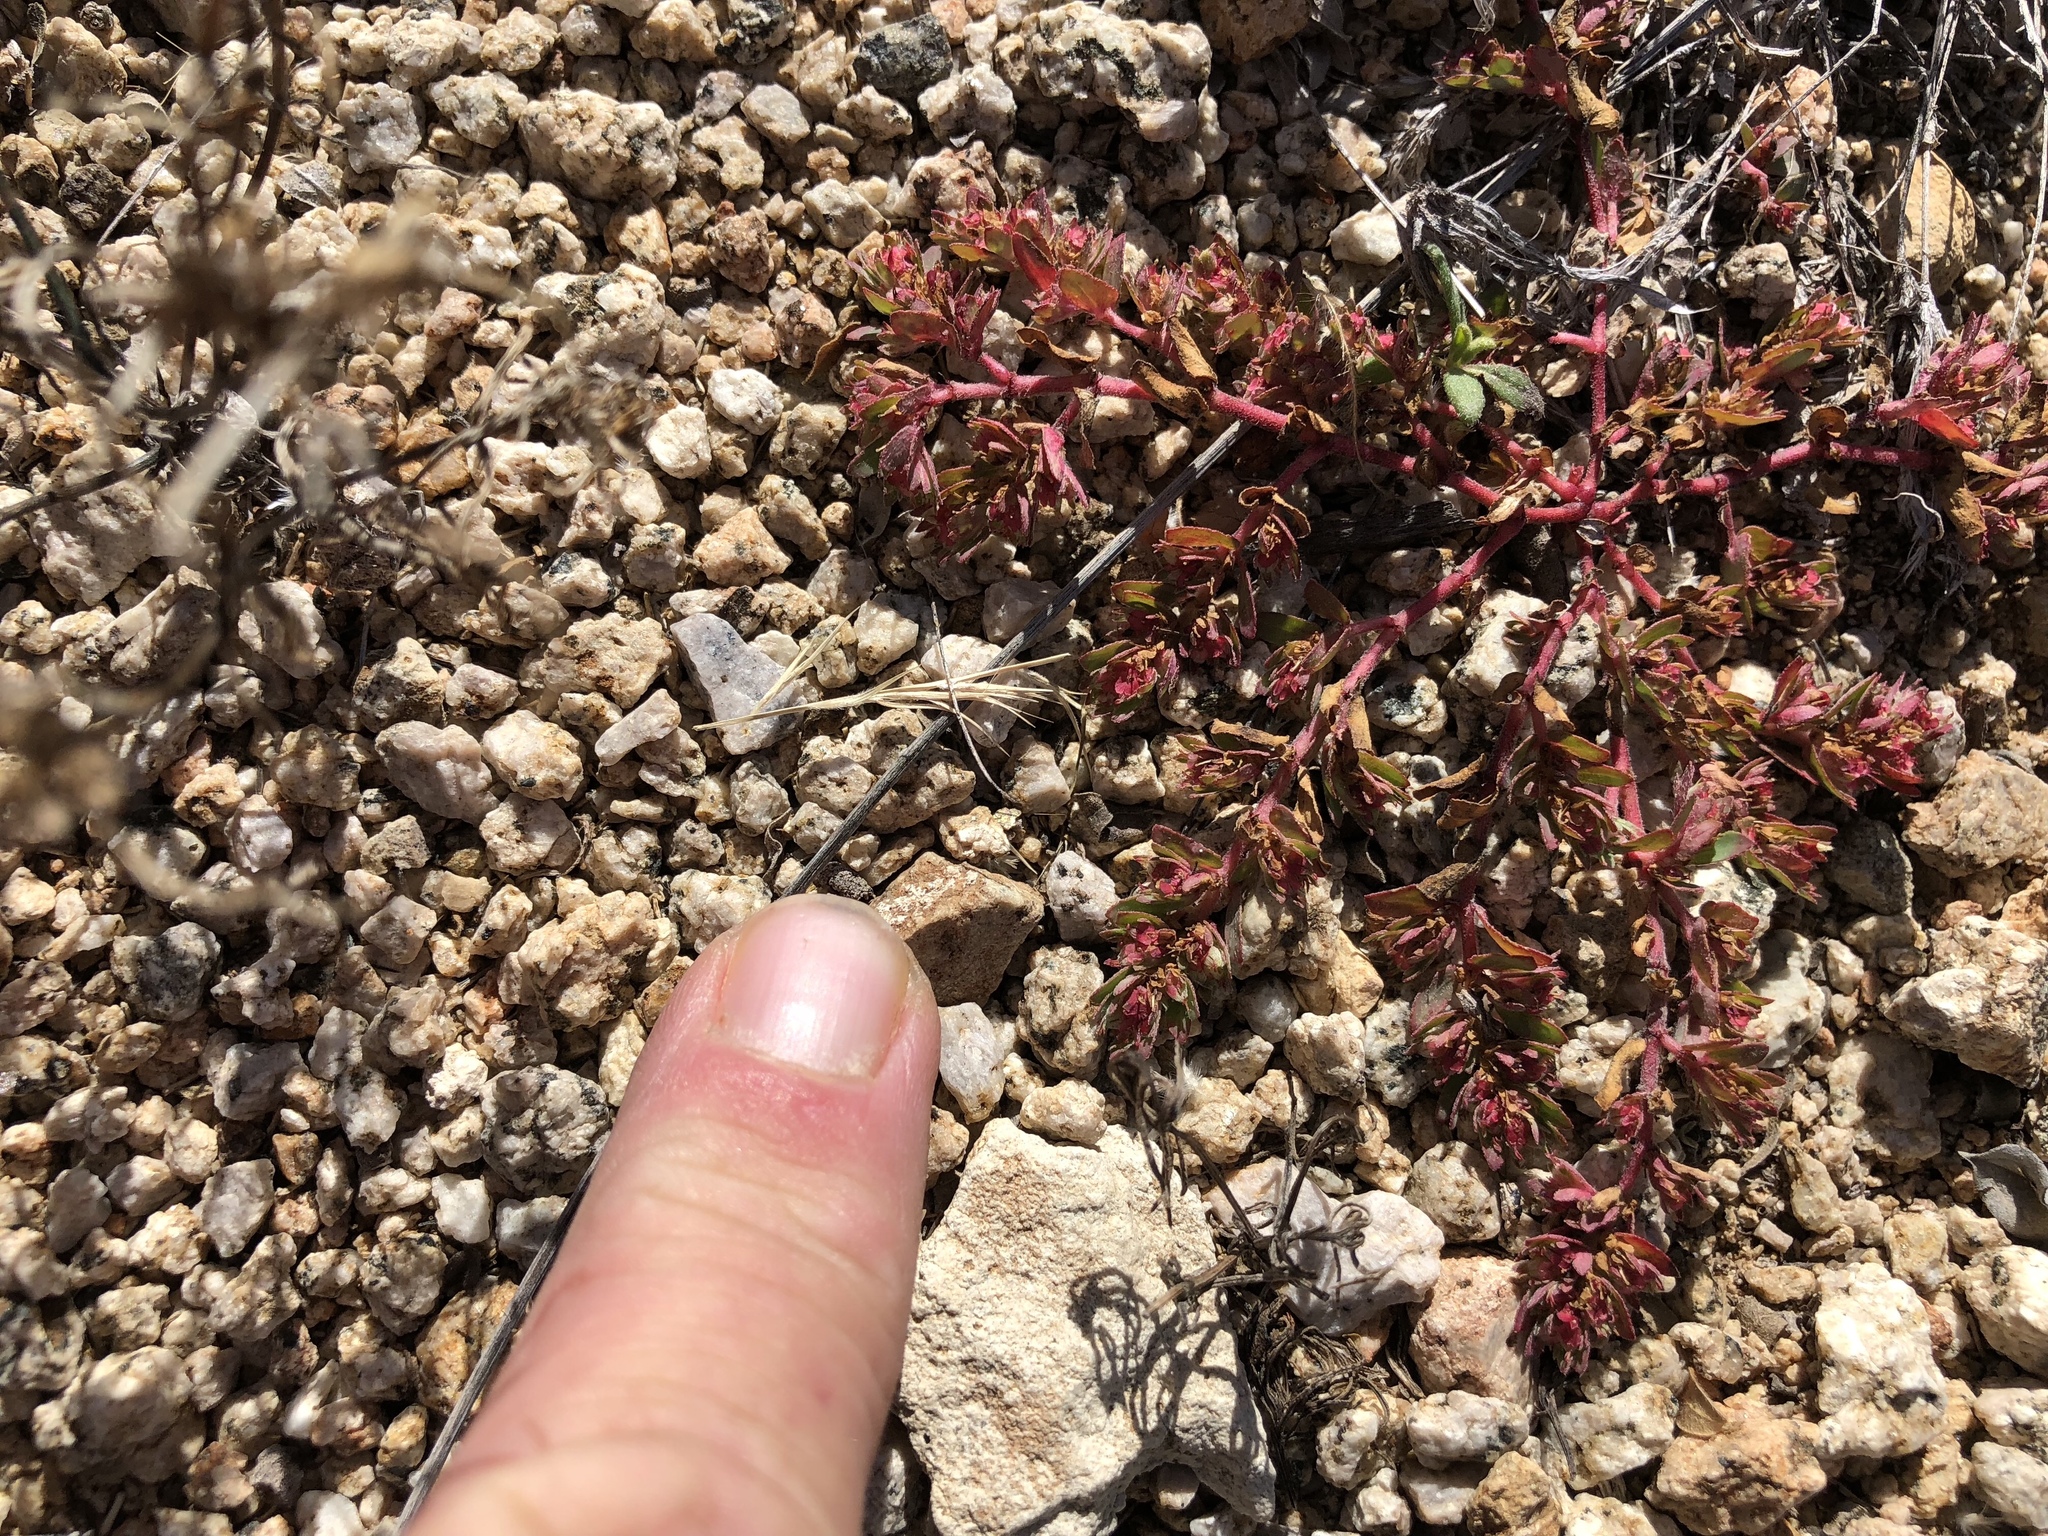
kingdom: Plantae
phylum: Tracheophyta
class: Magnoliopsida
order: Malpighiales
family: Euphorbiaceae
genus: Euphorbia
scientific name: Euphorbia indivisa
